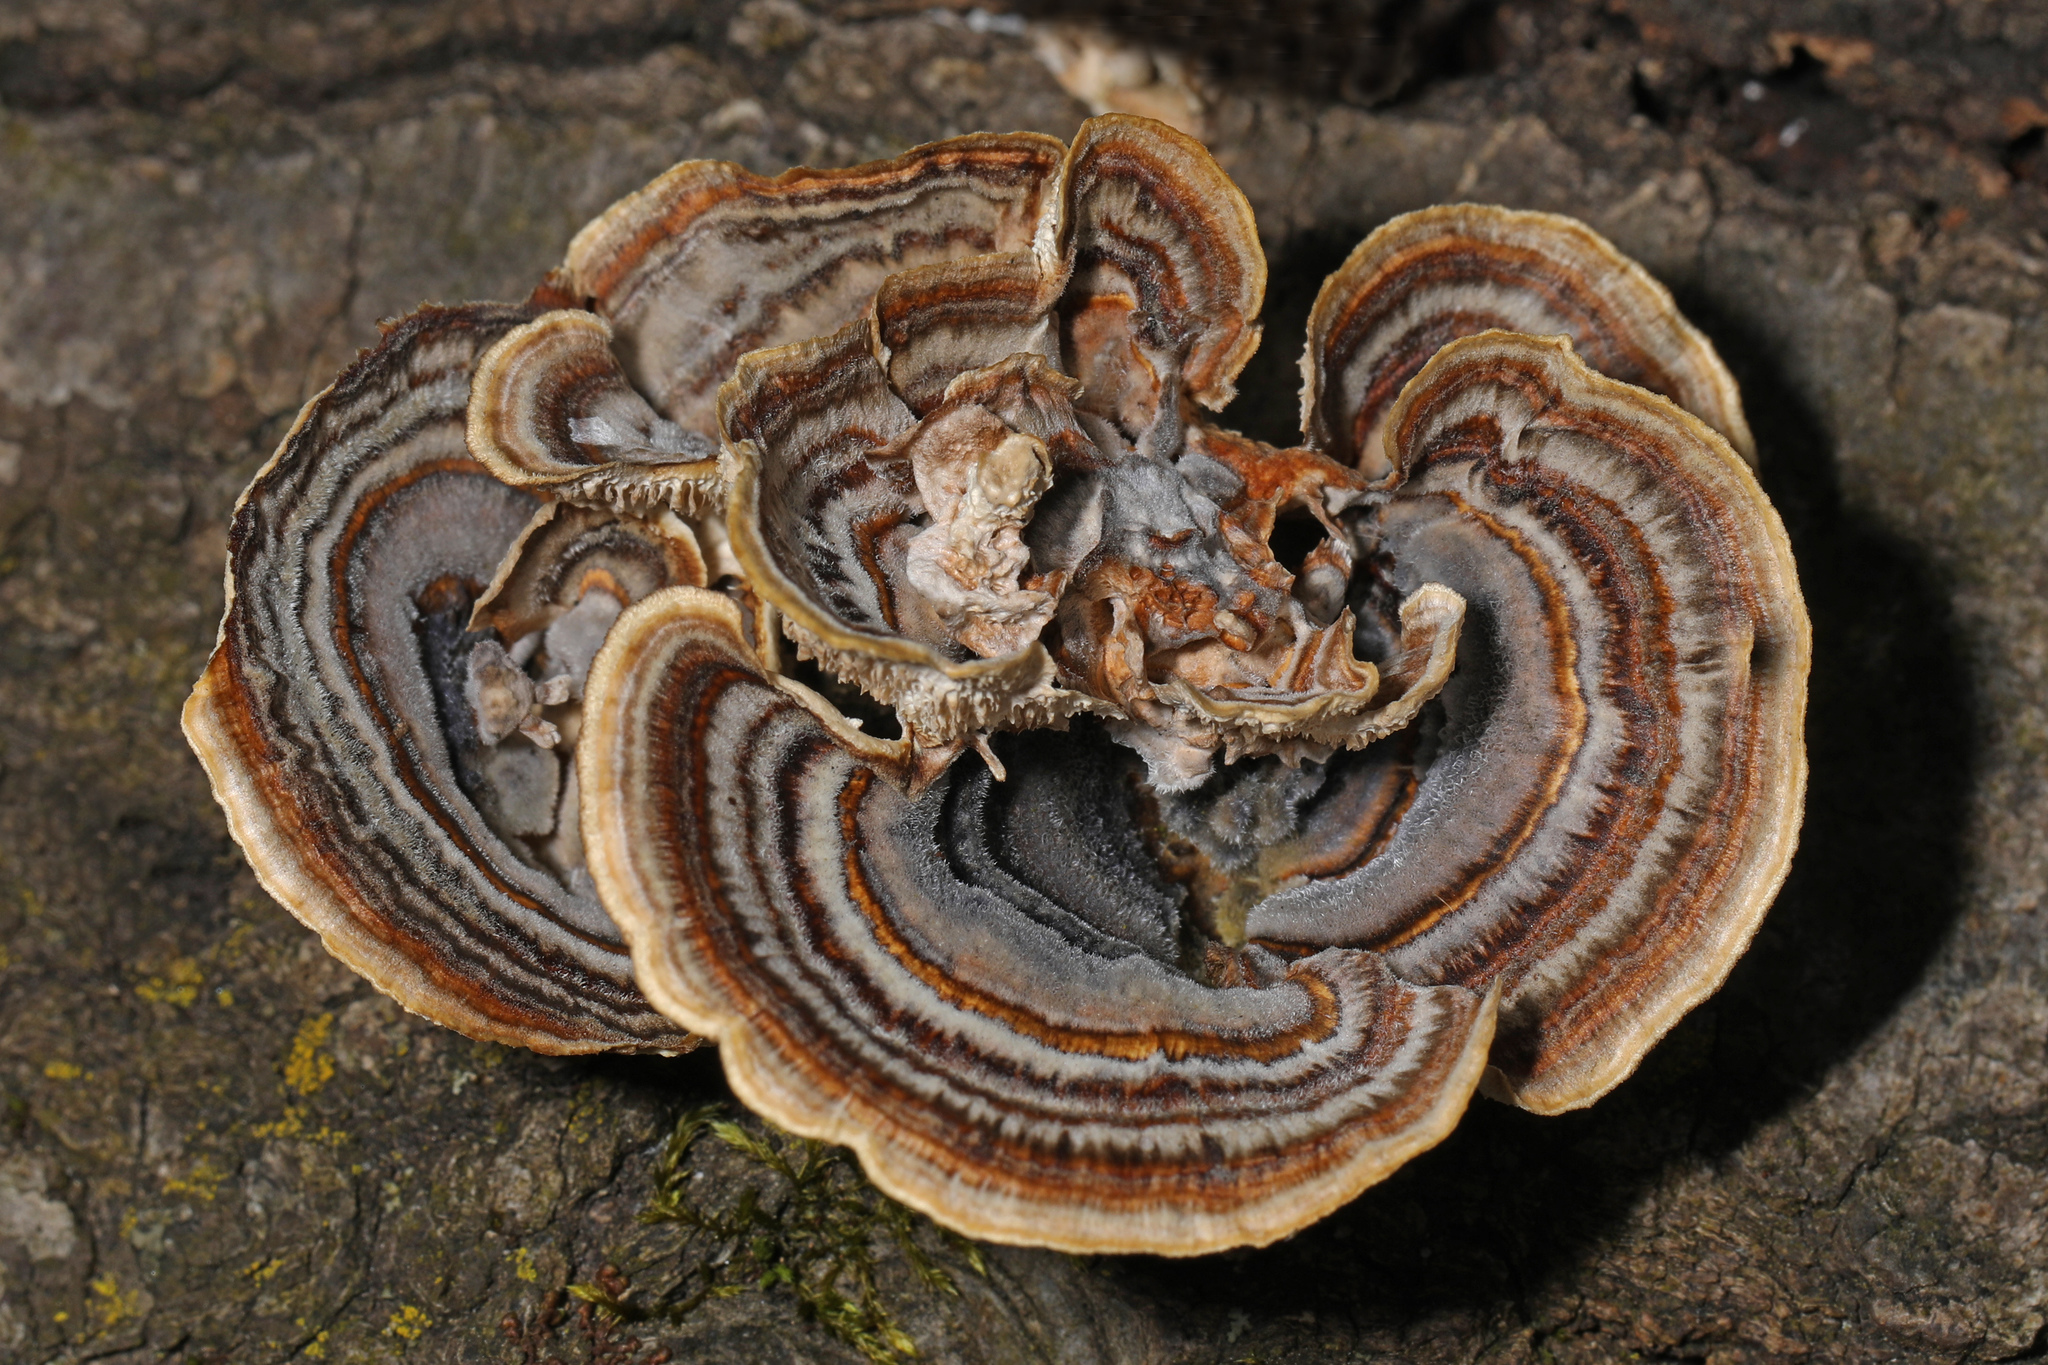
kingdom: Fungi
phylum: Basidiomycota
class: Agaricomycetes
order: Polyporales
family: Polyporaceae
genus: Trametes
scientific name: Trametes versicolor
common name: Turkeytail
